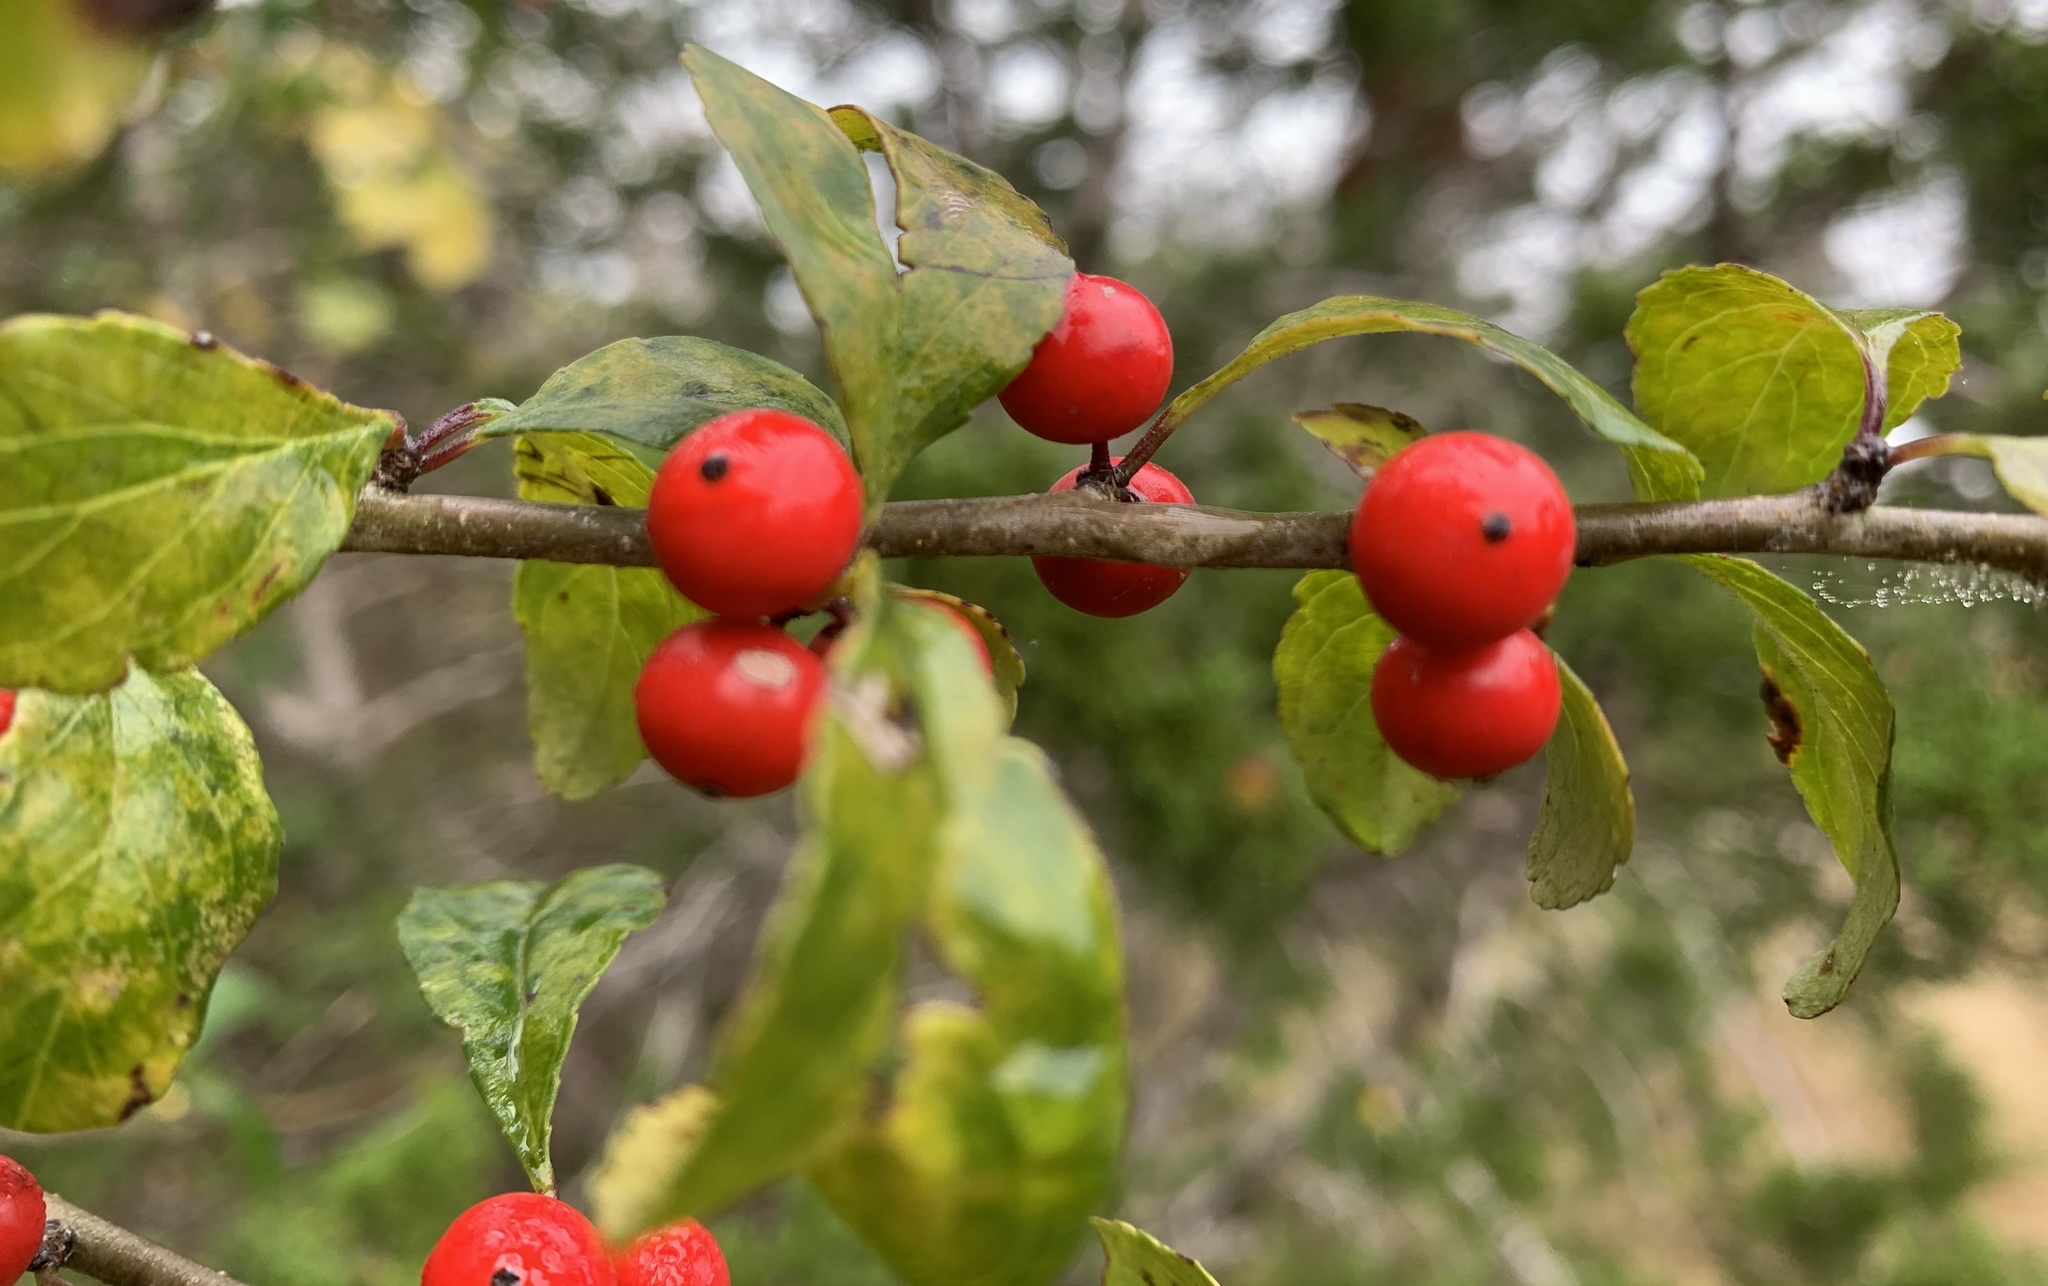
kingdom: Plantae
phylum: Tracheophyta
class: Magnoliopsida
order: Aquifoliales
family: Aquifoliaceae
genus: Ilex
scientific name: Ilex decidua
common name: Possum-haw
